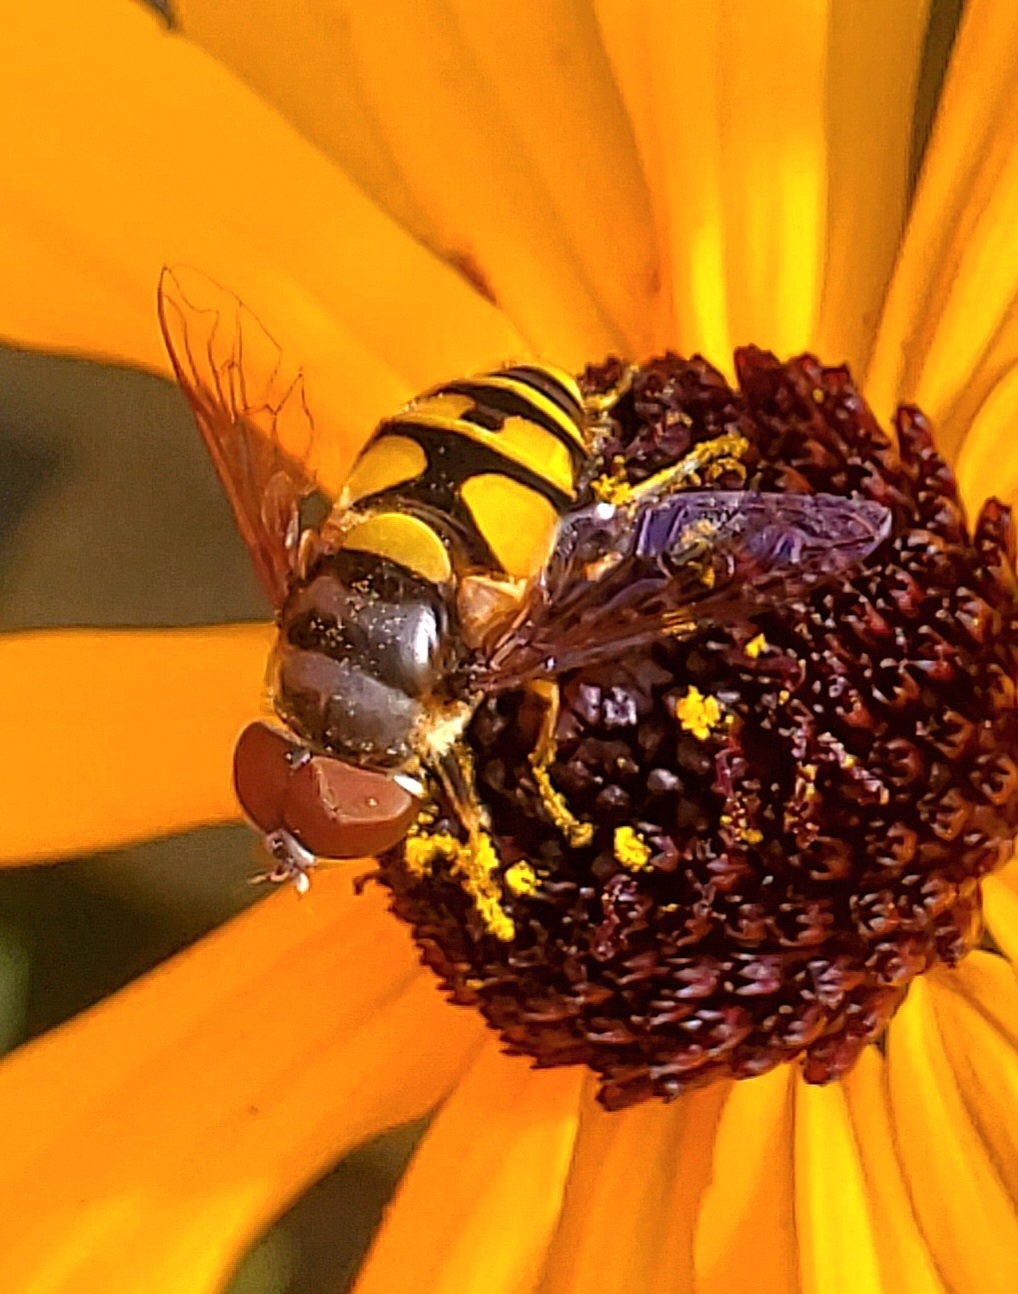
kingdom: Animalia
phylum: Arthropoda
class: Insecta
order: Diptera
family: Syrphidae
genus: Eristalis
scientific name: Eristalis transversa
